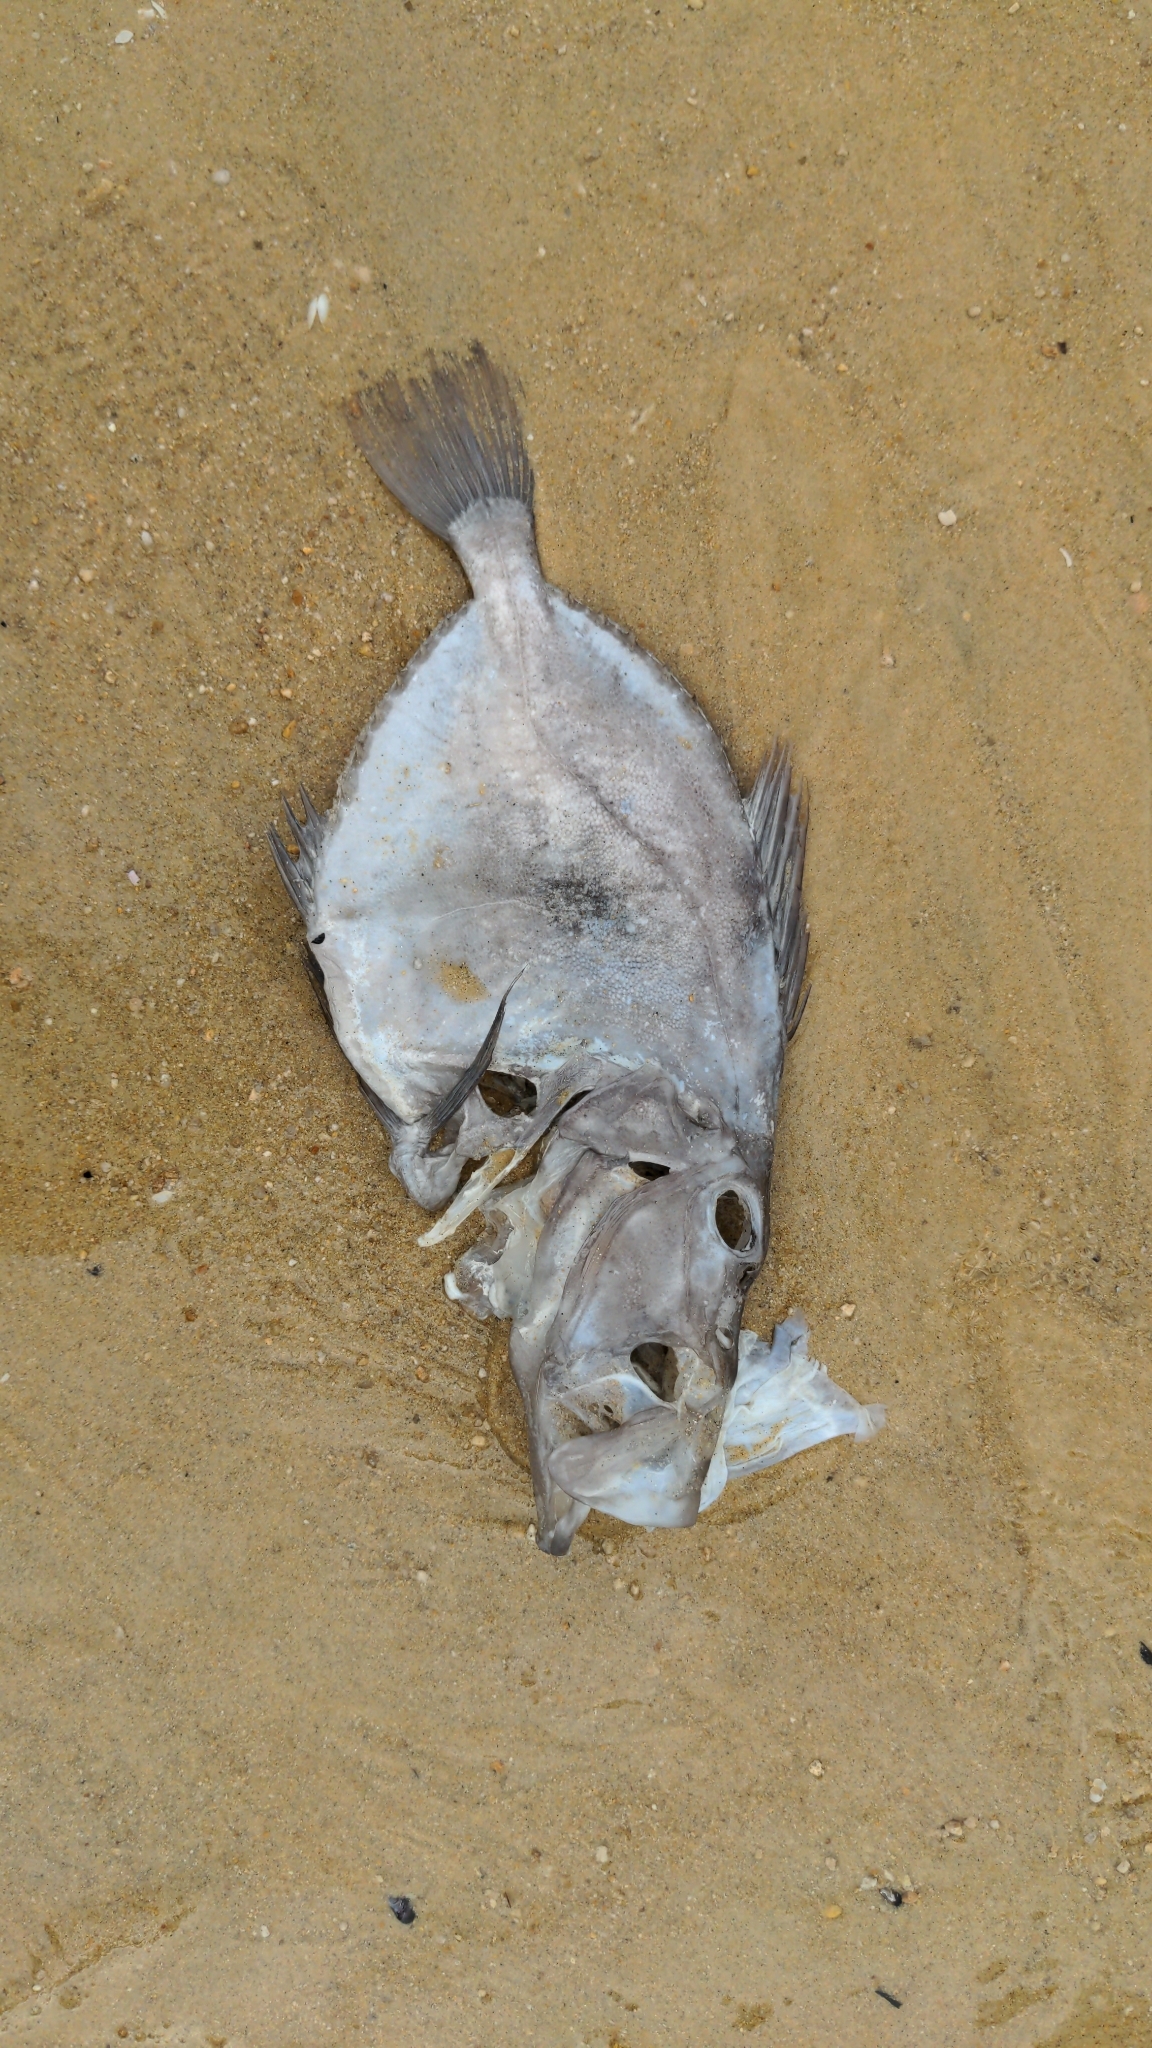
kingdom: Animalia
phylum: Chordata
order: Zeiformes
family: Zeidae
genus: Zeus
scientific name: Zeus faber
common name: John dory
